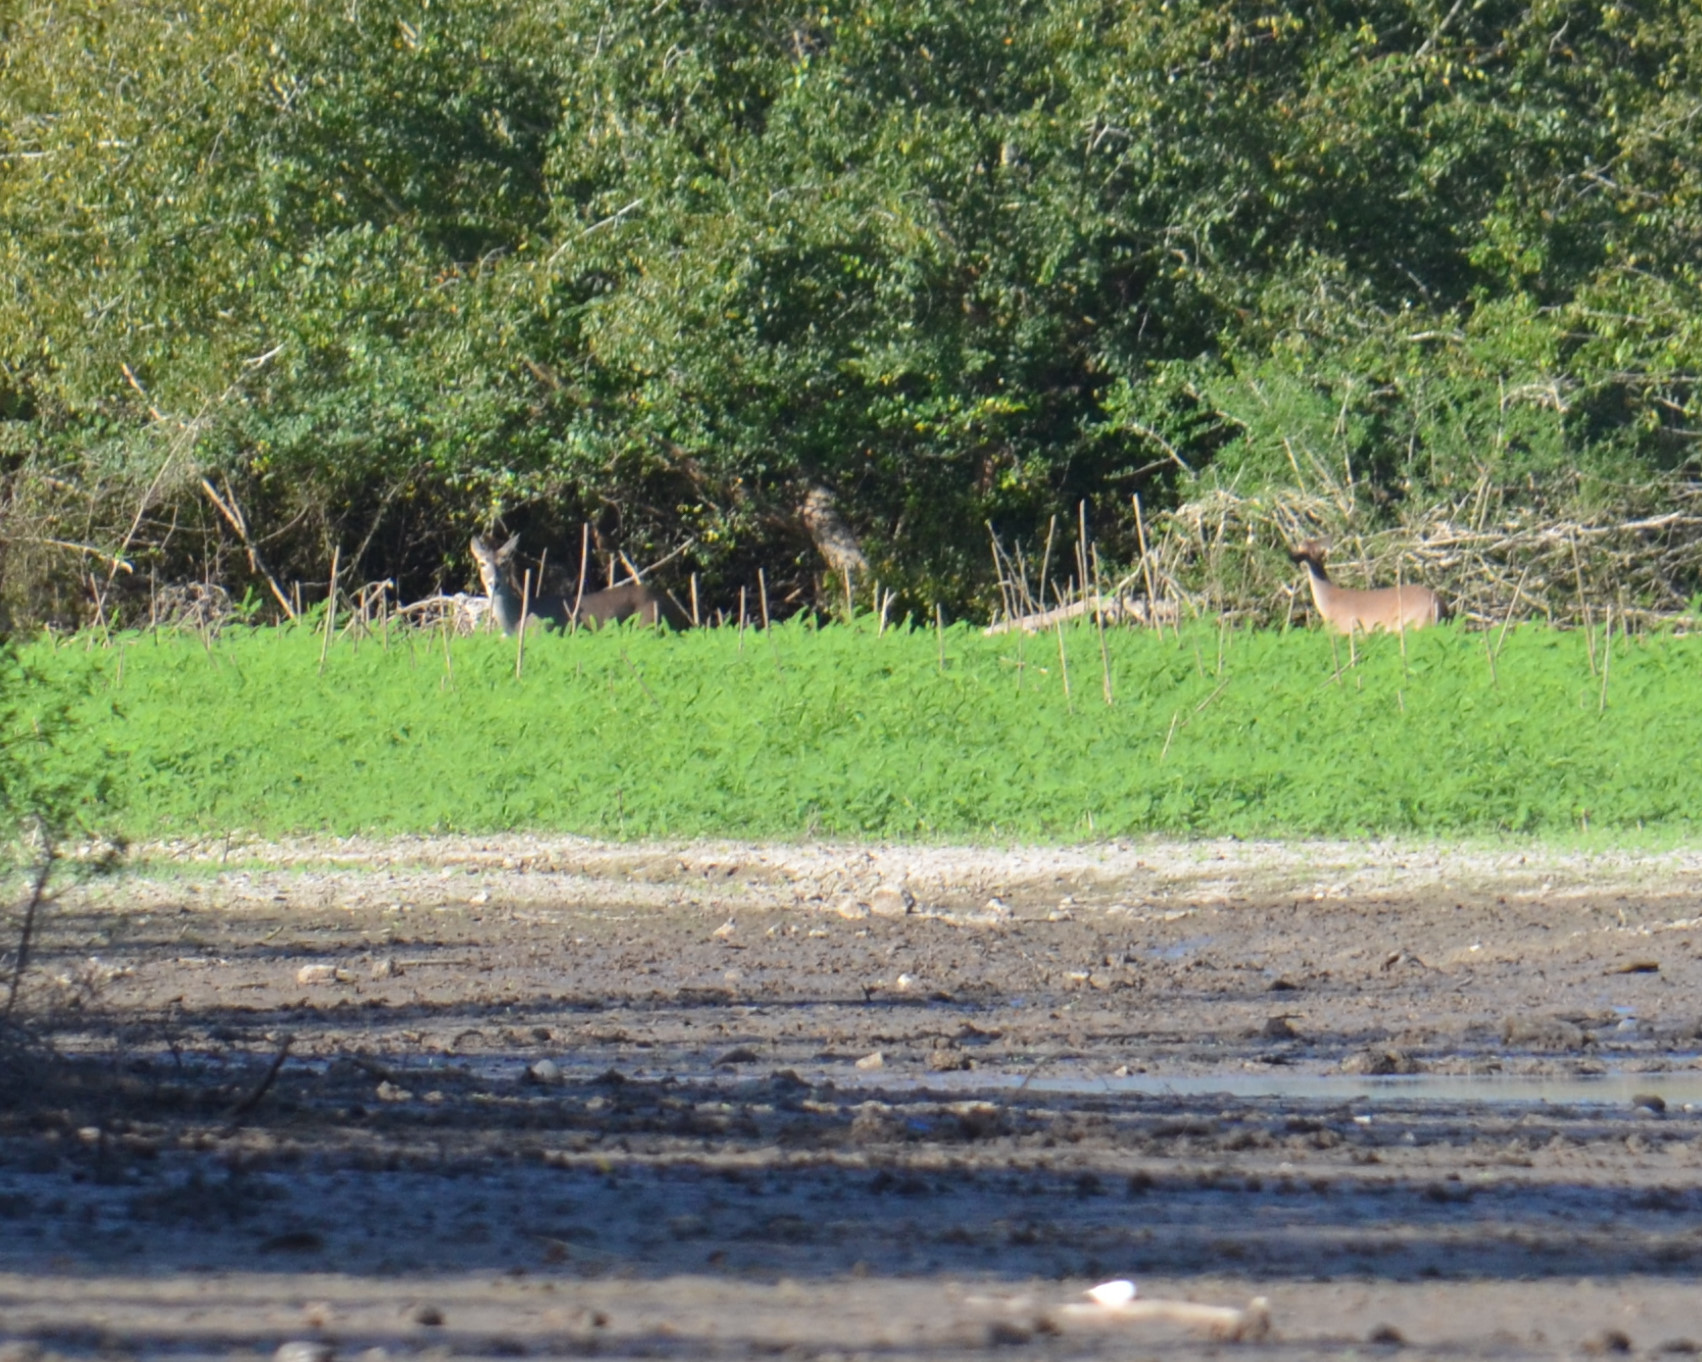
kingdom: Animalia
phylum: Chordata
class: Mammalia
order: Artiodactyla
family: Cervidae
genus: Odocoileus
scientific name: Odocoileus virginianus
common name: White-tailed deer
